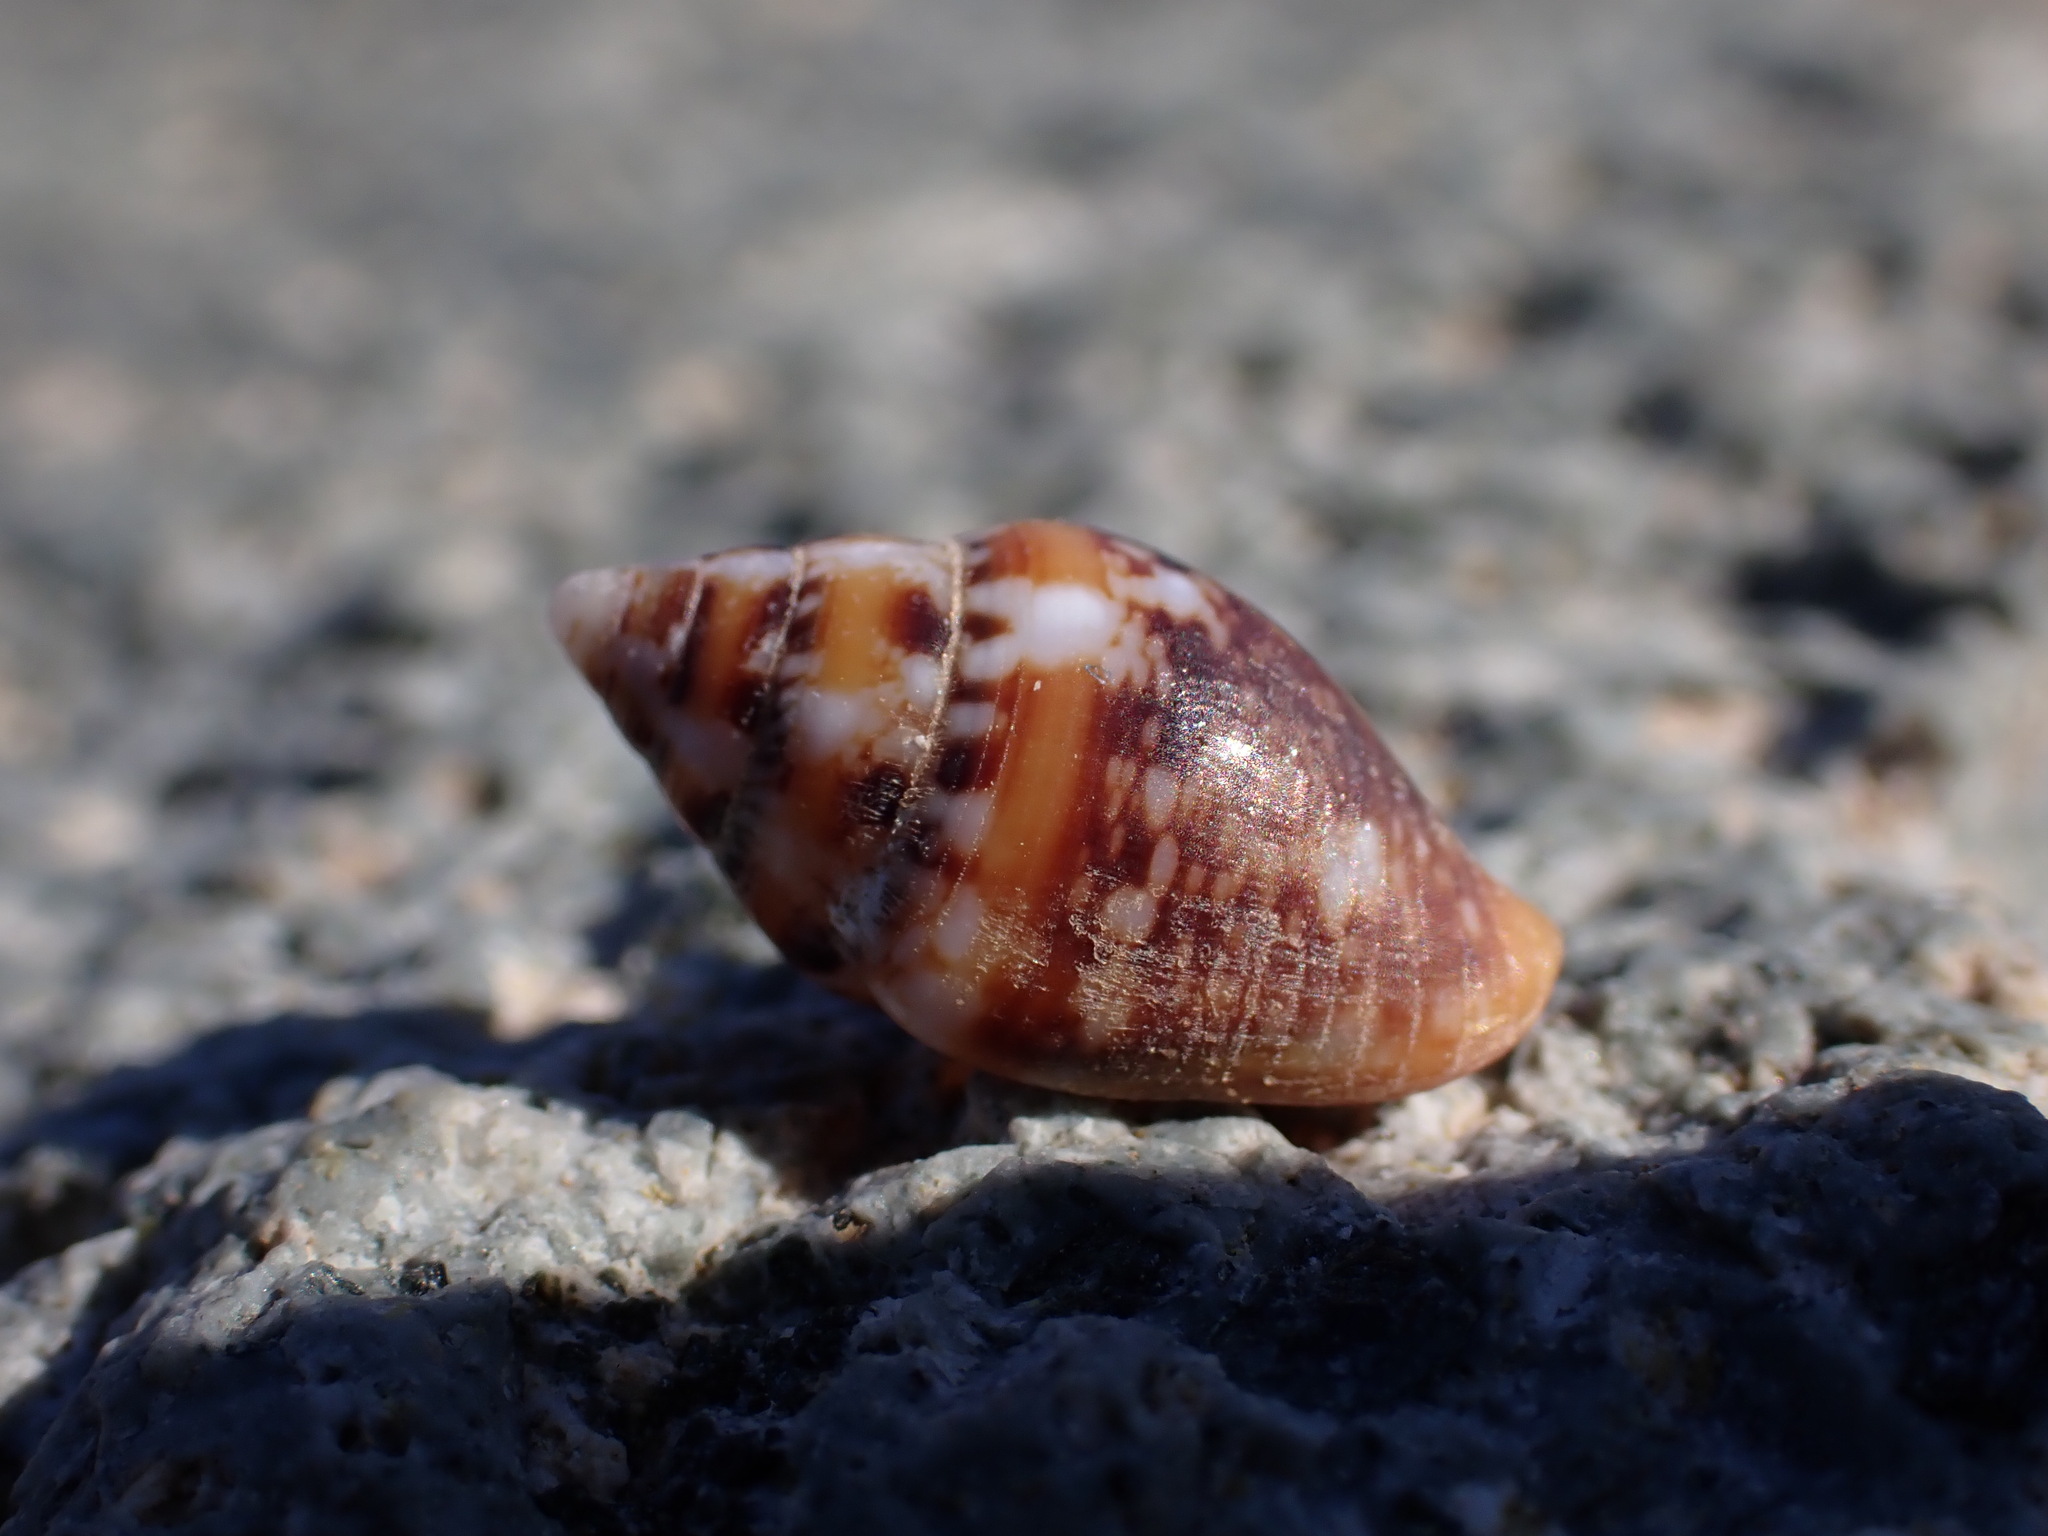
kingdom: Animalia
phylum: Mollusca
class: Gastropoda
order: Neogastropoda
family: Columbellidae
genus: Columbella
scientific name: Columbella rustica
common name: Rustic dove shell
